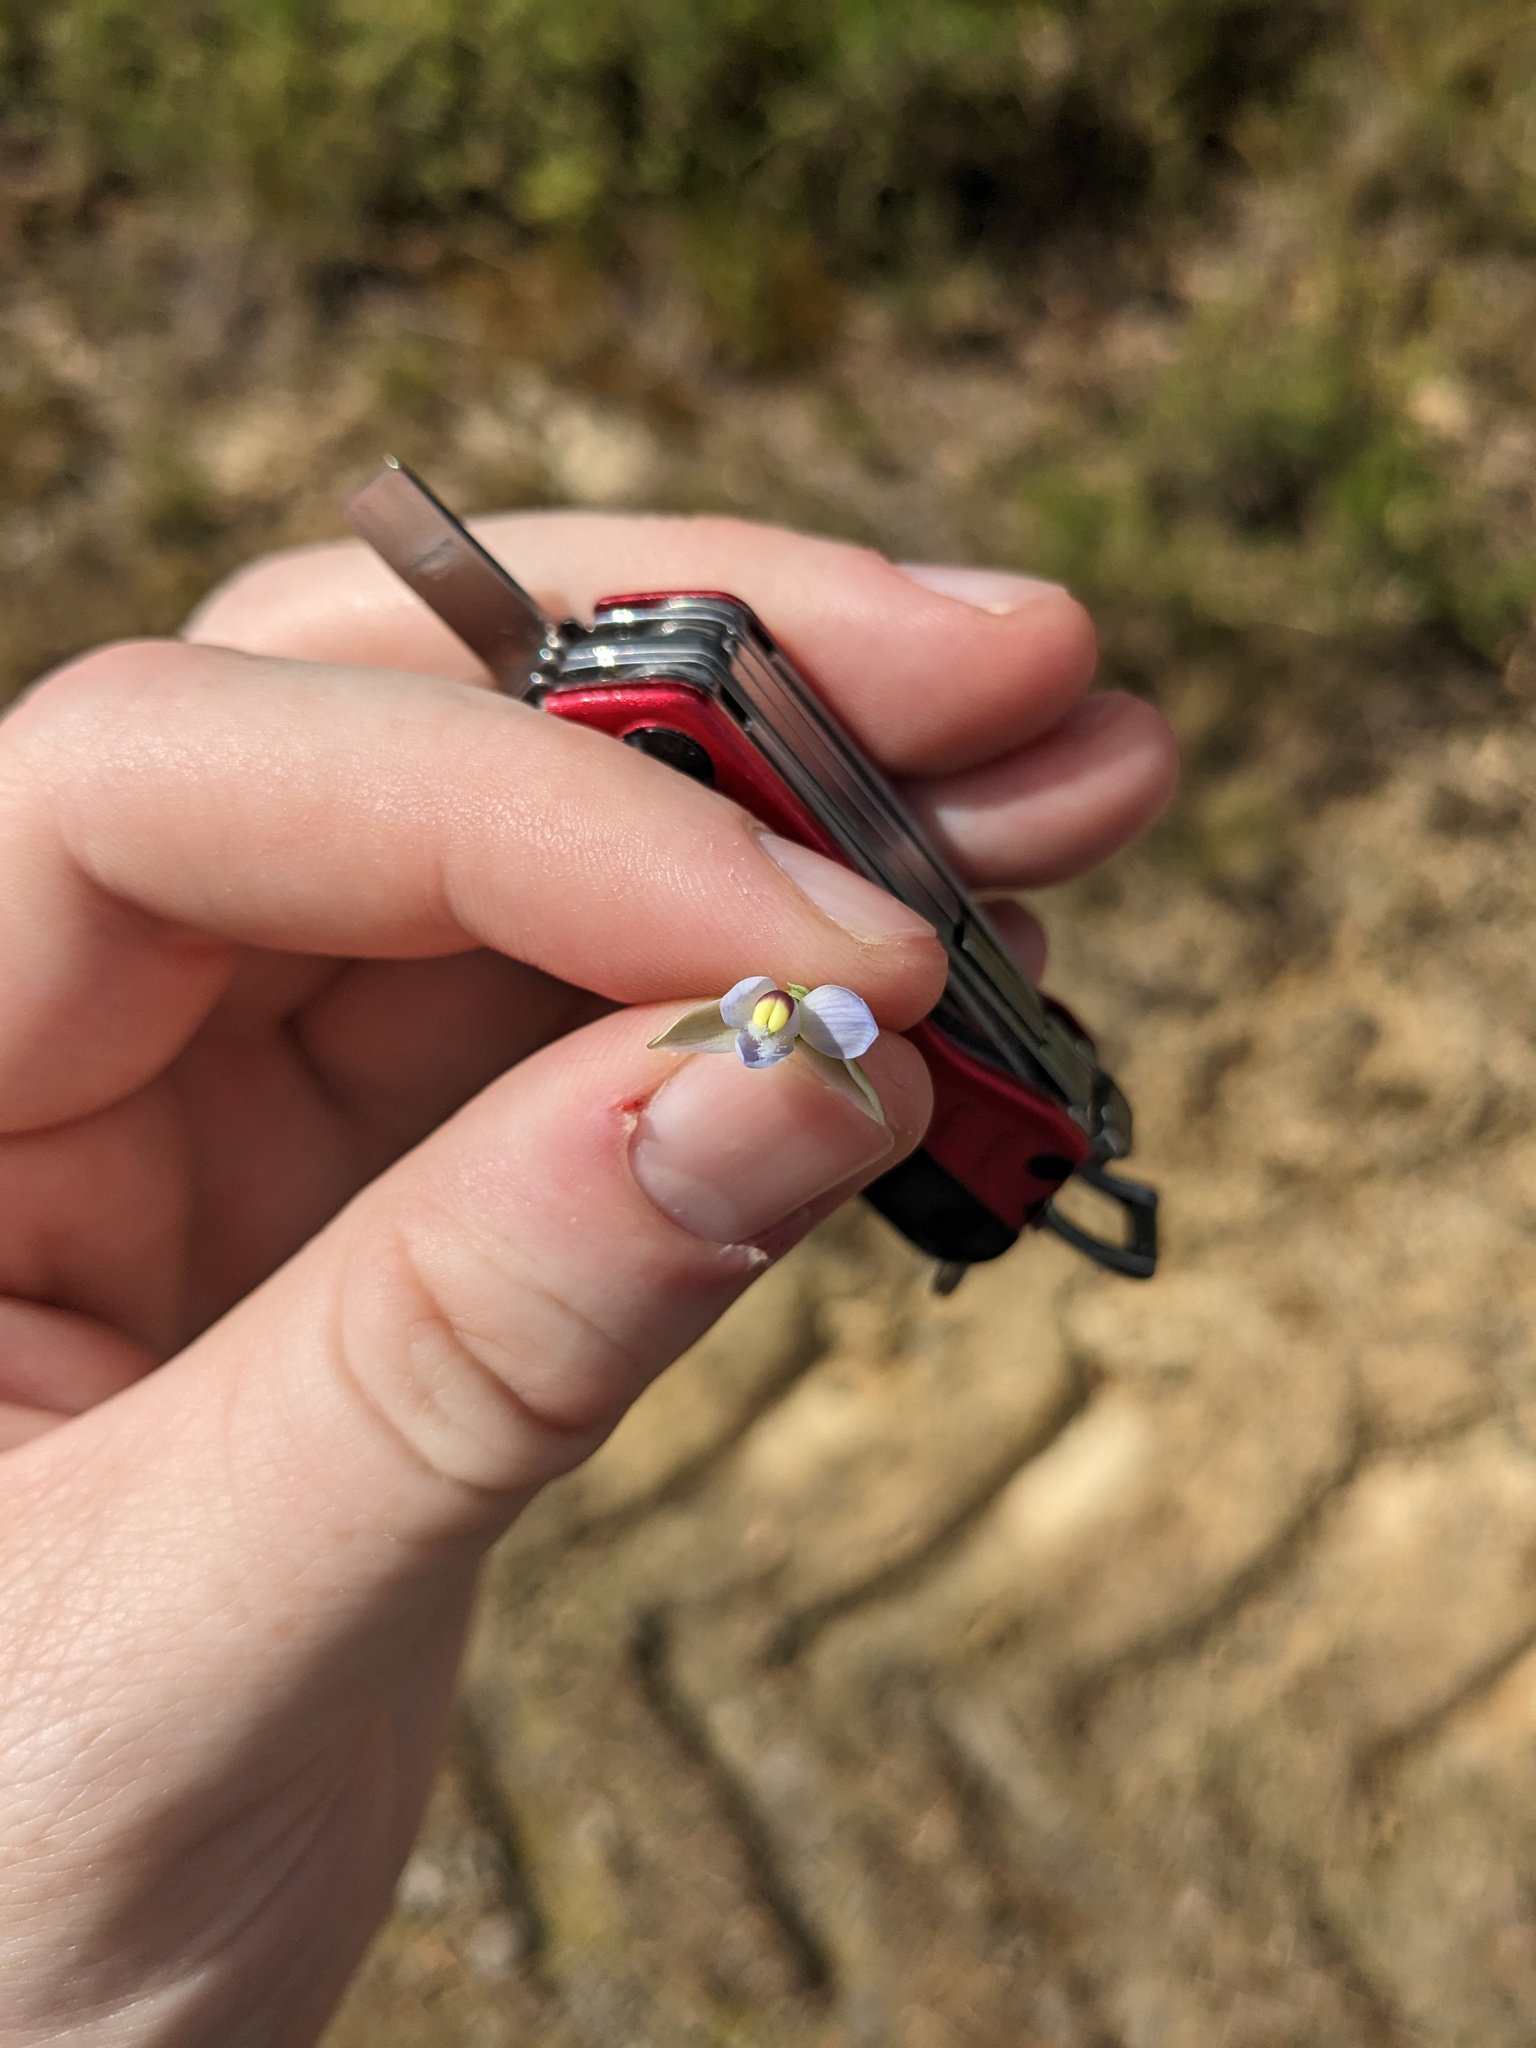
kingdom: Plantae
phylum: Tracheophyta
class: Liliopsida
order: Asparagales
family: Orchidaceae
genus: Thelymitra
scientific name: Thelymitra pauciflora
